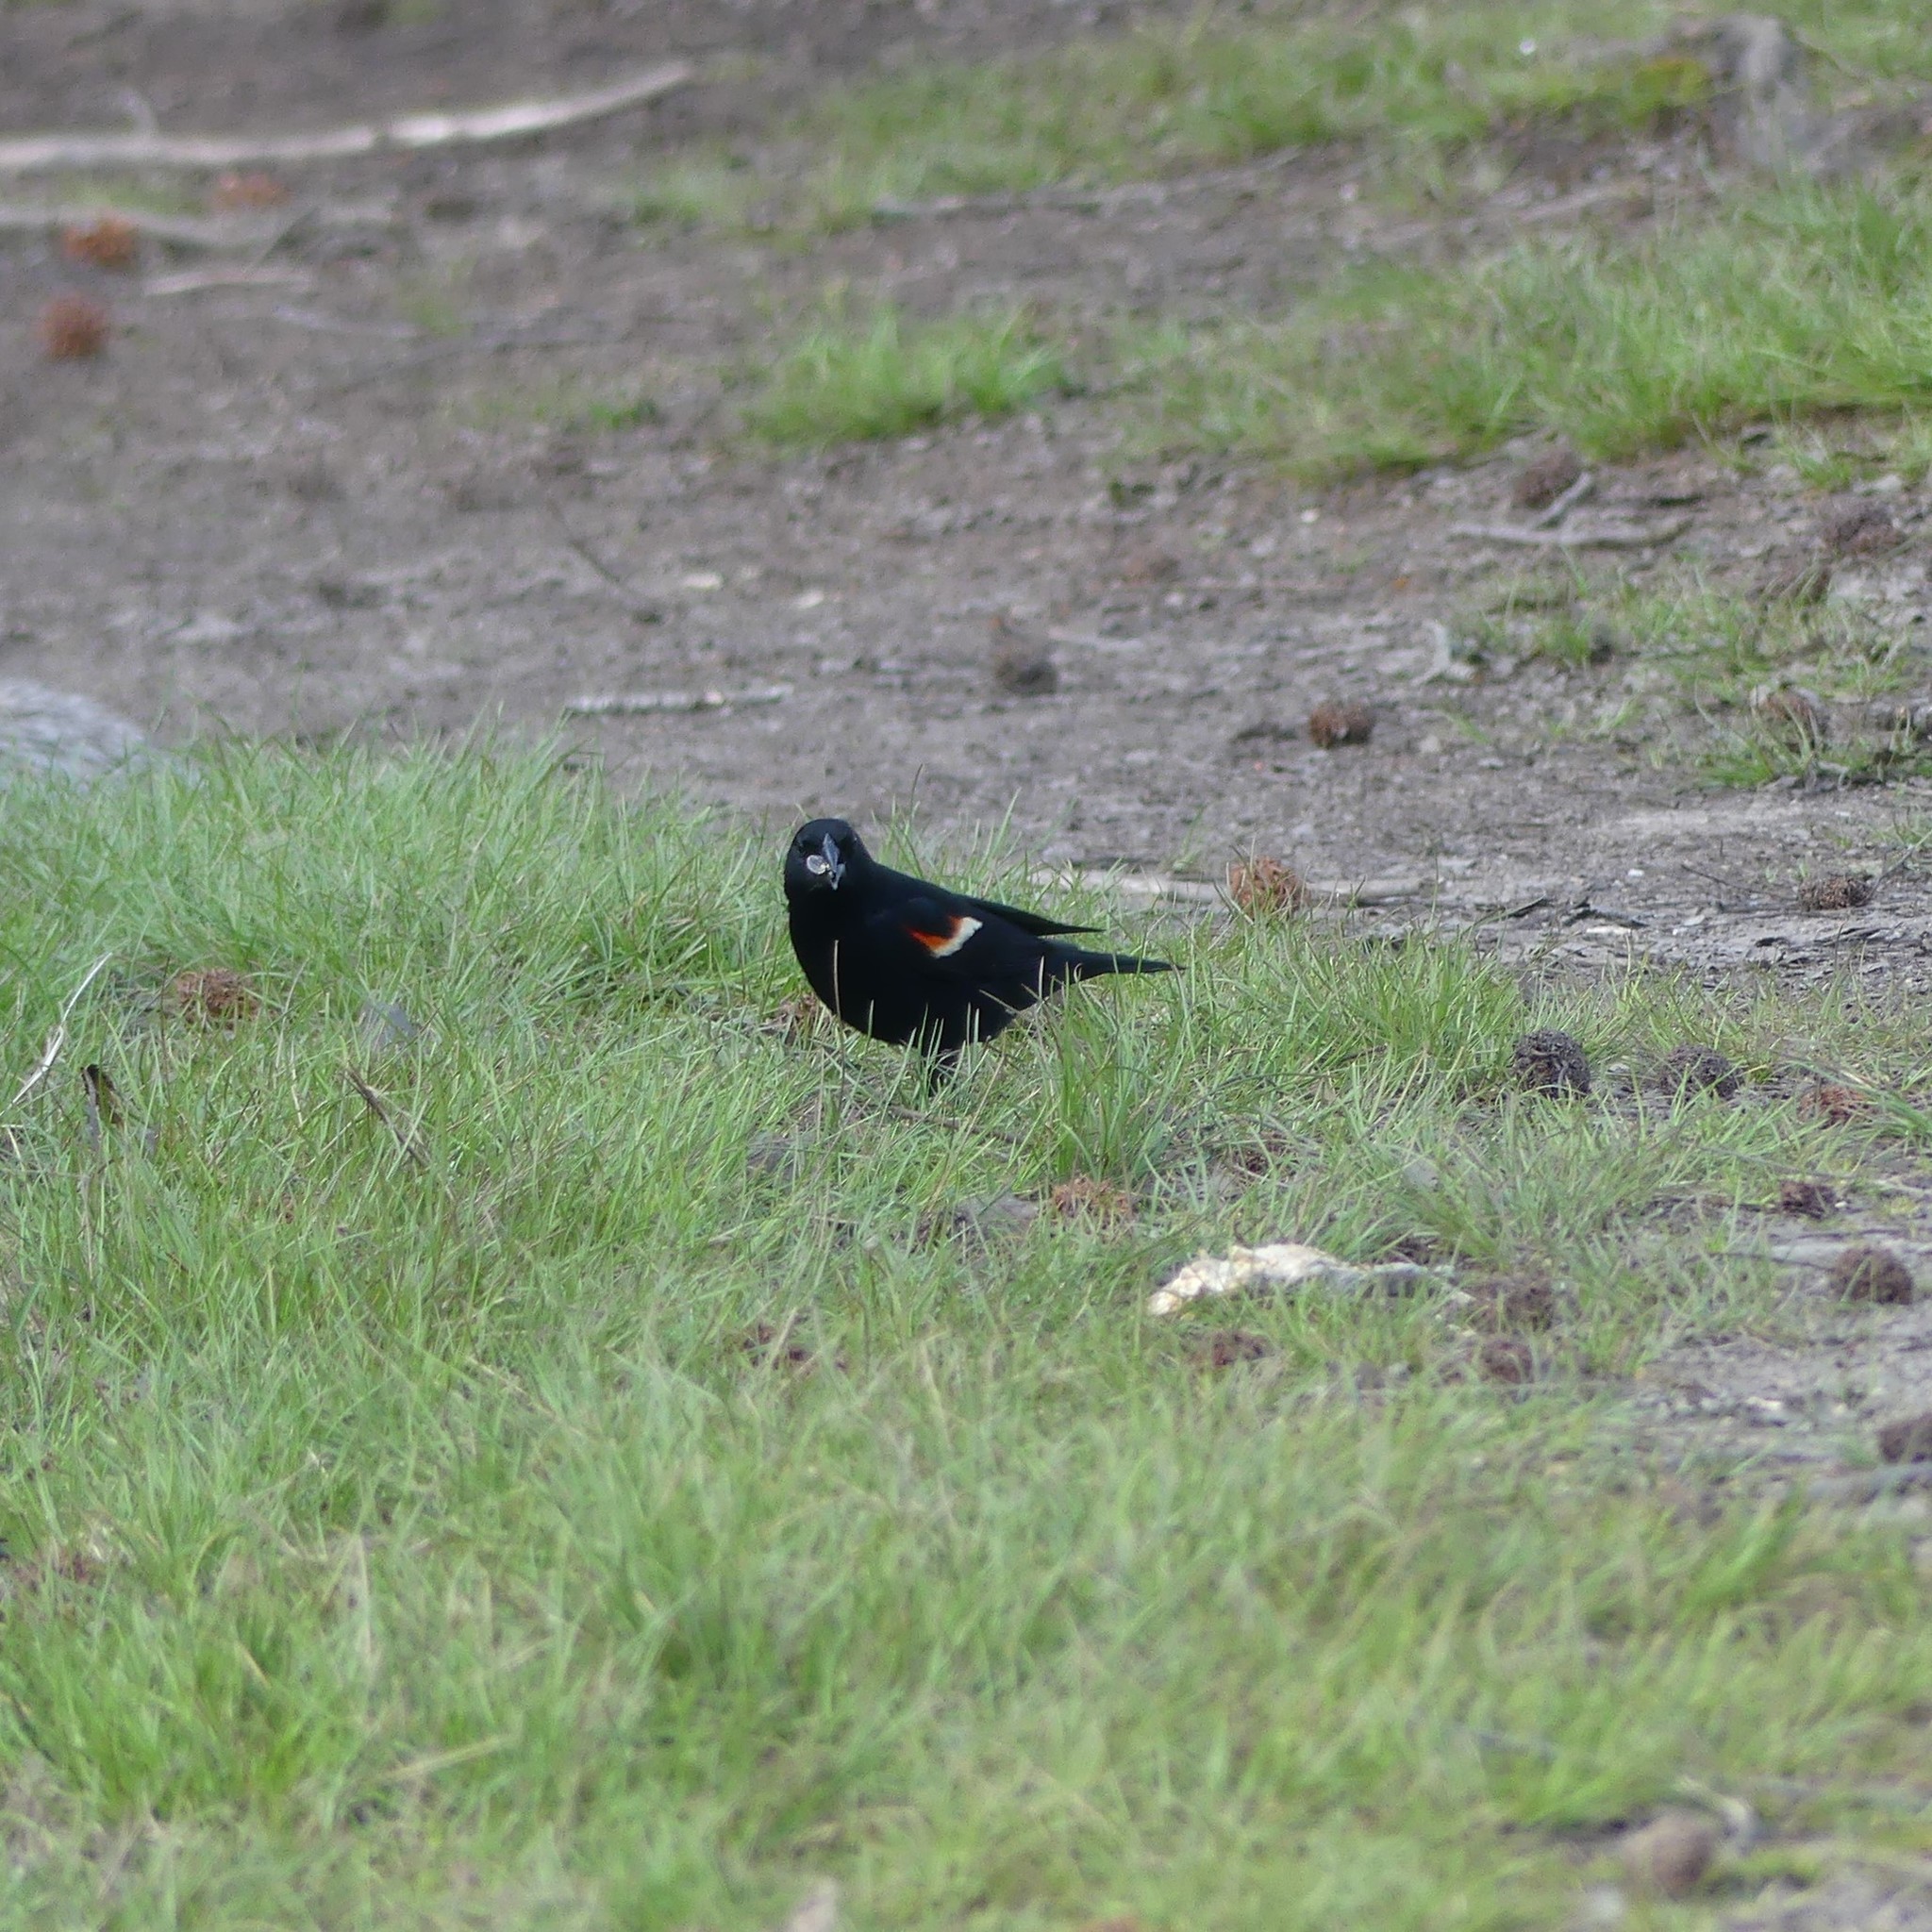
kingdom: Animalia
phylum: Chordata
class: Aves
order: Passeriformes
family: Icteridae
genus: Agelaius
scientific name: Agelaius phoeniceus
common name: Red-winged blackbird
